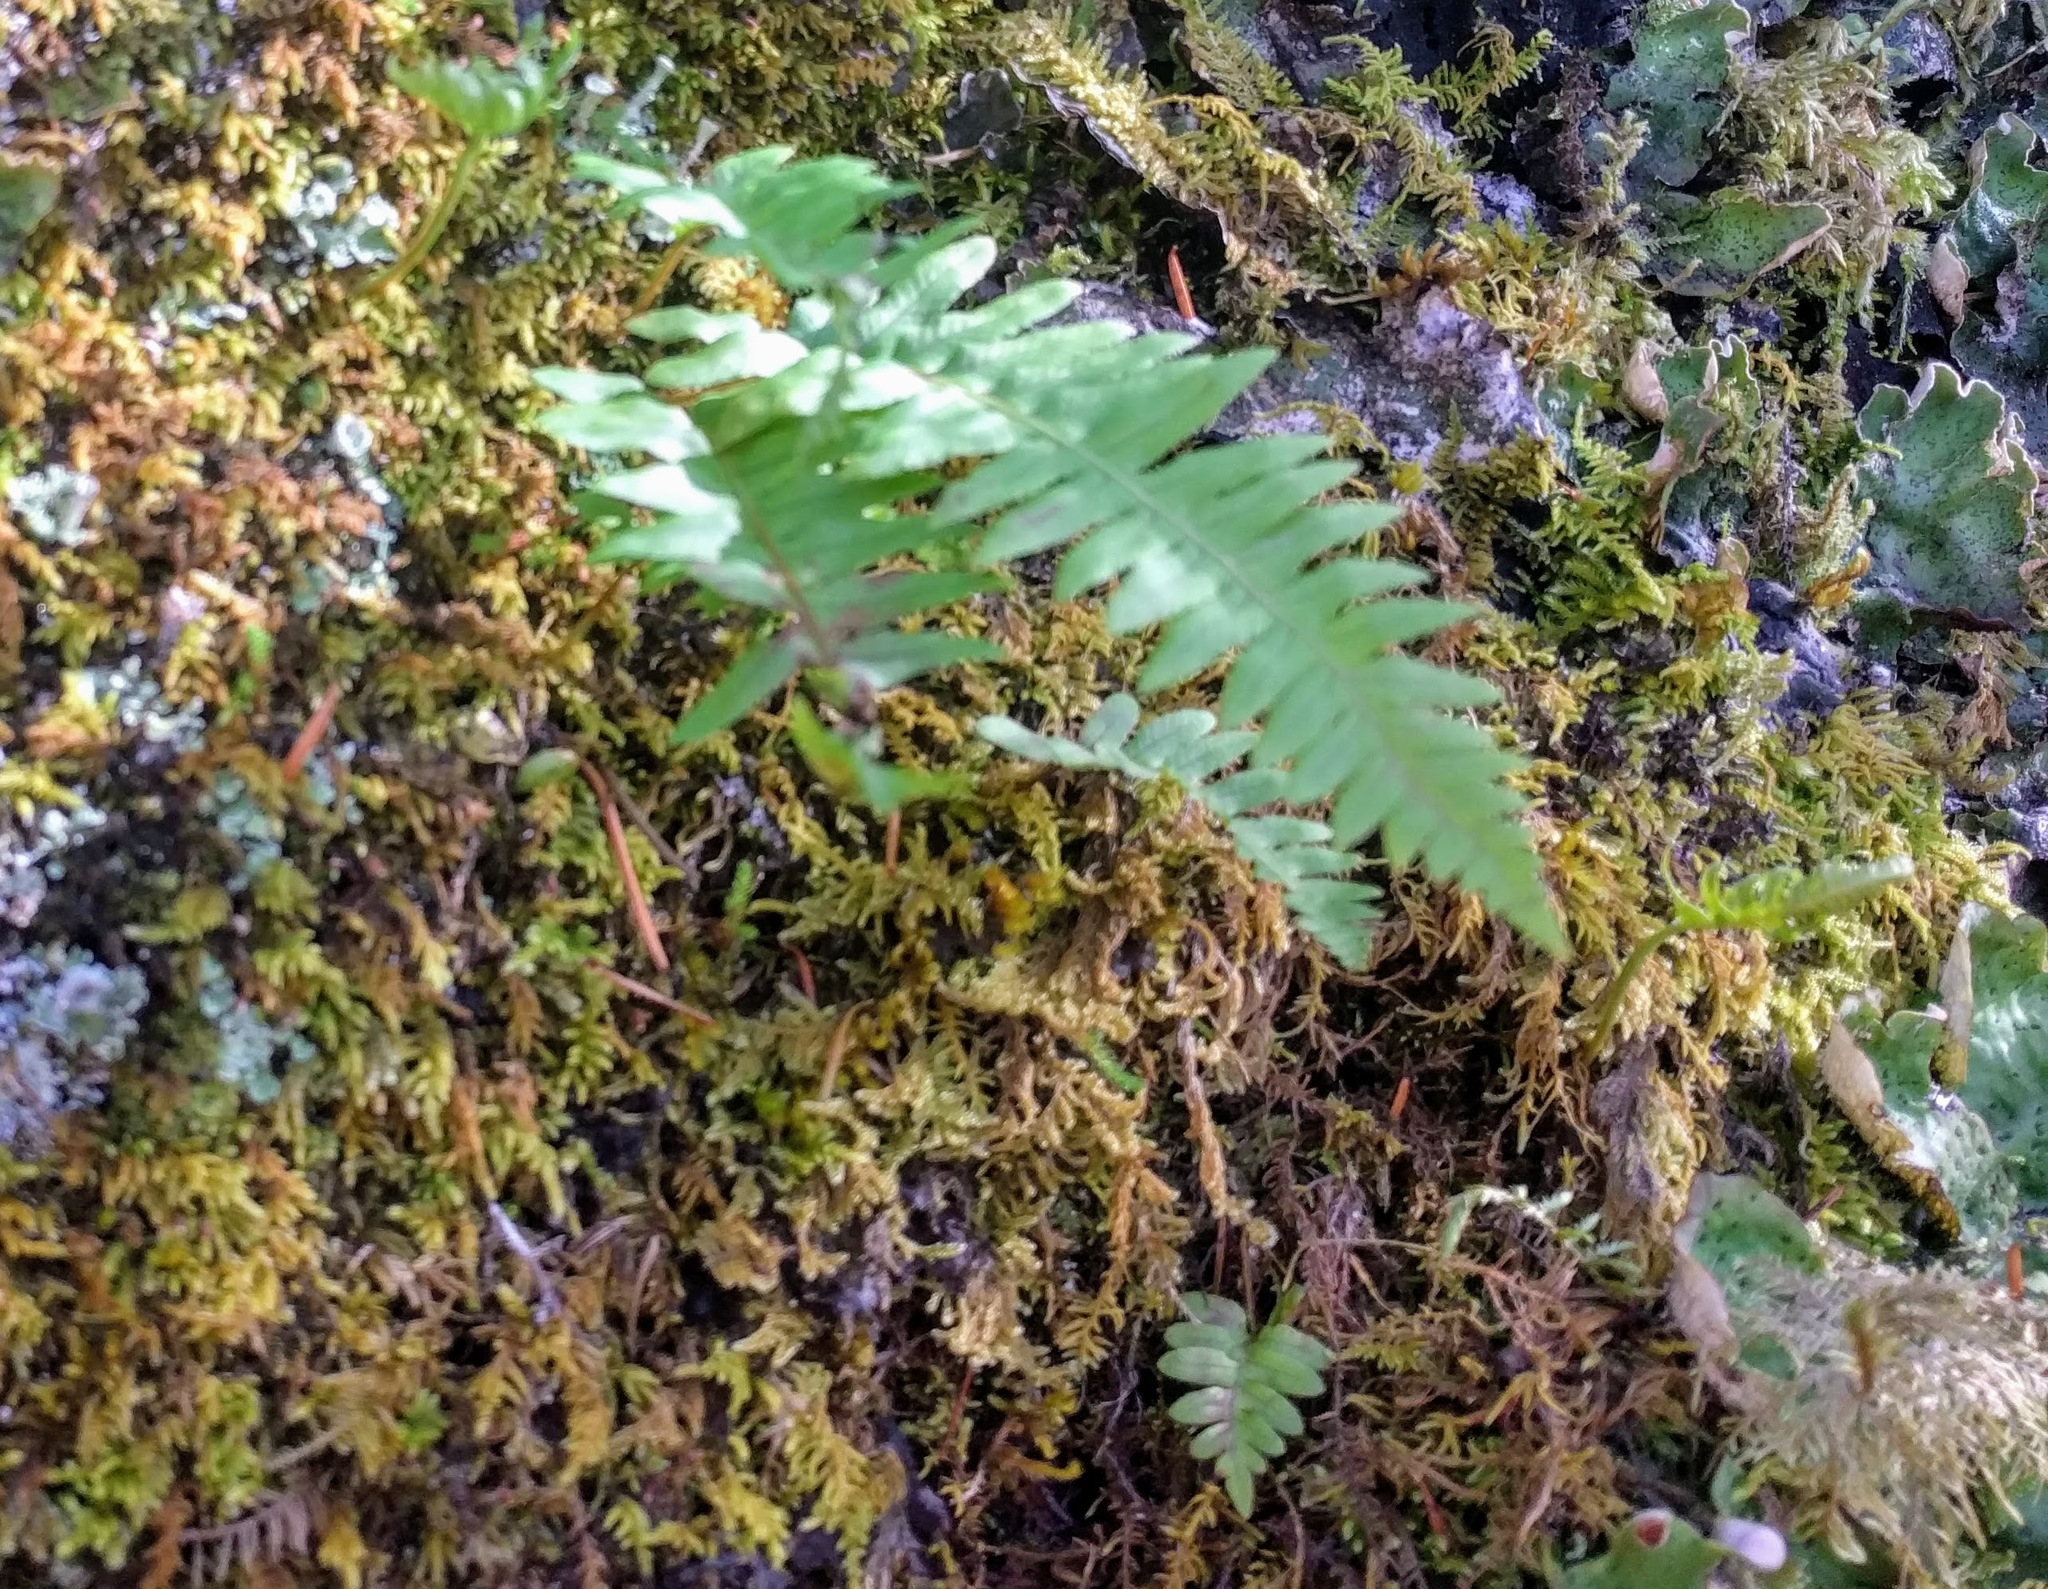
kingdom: Plantae
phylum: Tracheophyta
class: Polypodiopsida
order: Polypodiales
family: Polypodiaceae
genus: Polypodium
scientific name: Polypodium glycyrrhiza
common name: Licorice fern
